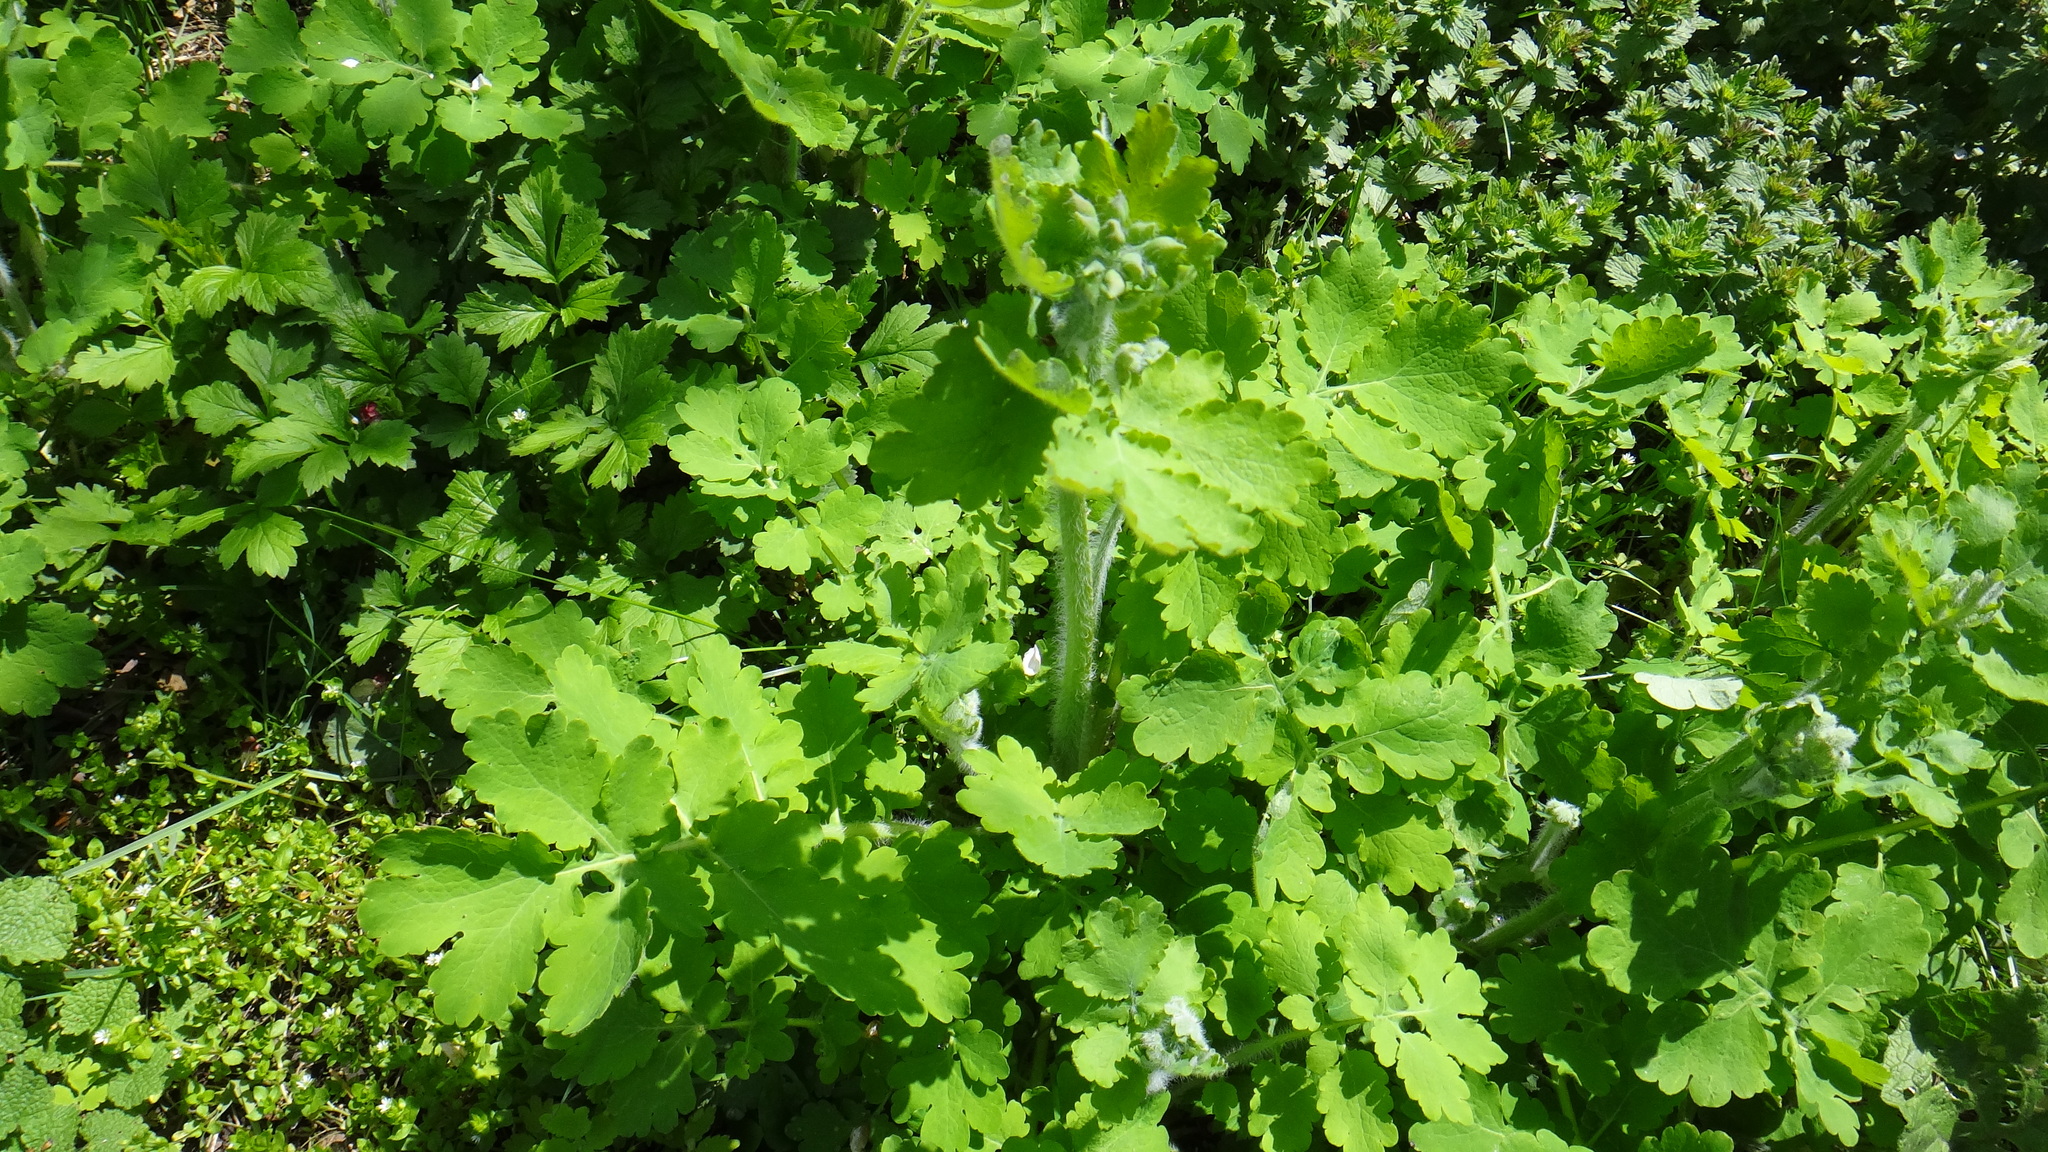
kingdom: Plantae
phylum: Tracheophyta
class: Magnoliopsida
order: Ranunculales
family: Papaveraceae
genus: Chelidonium
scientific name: Chelidonium majus
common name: Greater celandine
